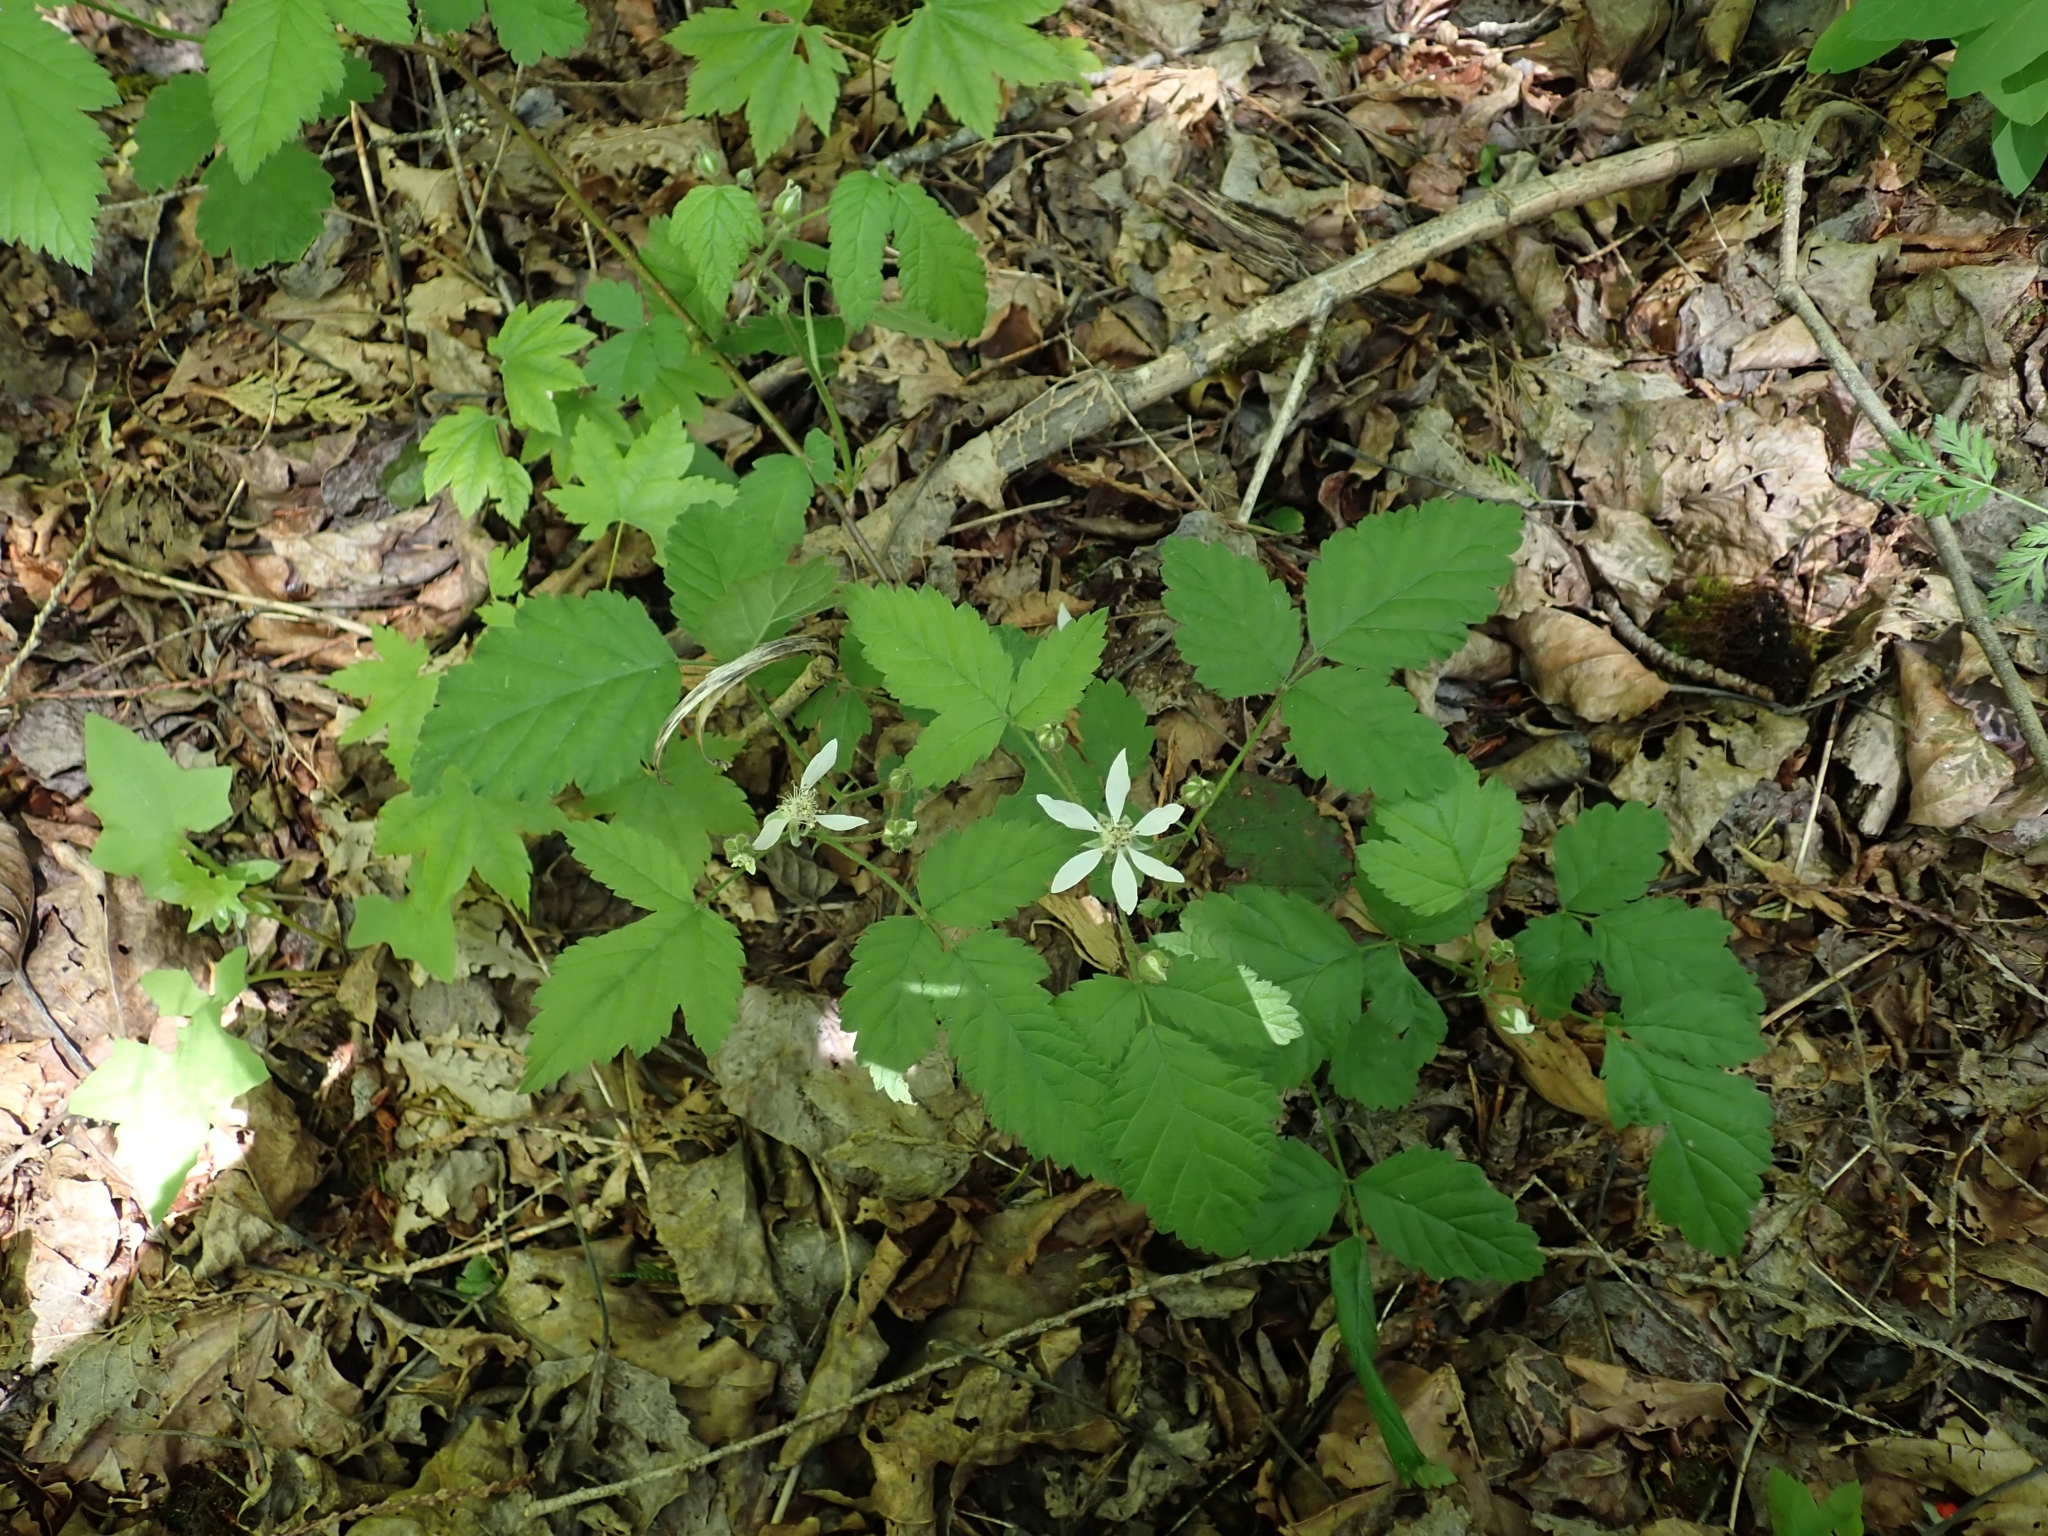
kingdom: Plantae
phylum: Tracheophyta
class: Magnoliopsida
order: Rosales
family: Rosaceae
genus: Rubus
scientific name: Rubus ursinus
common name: Pacific blackberry
